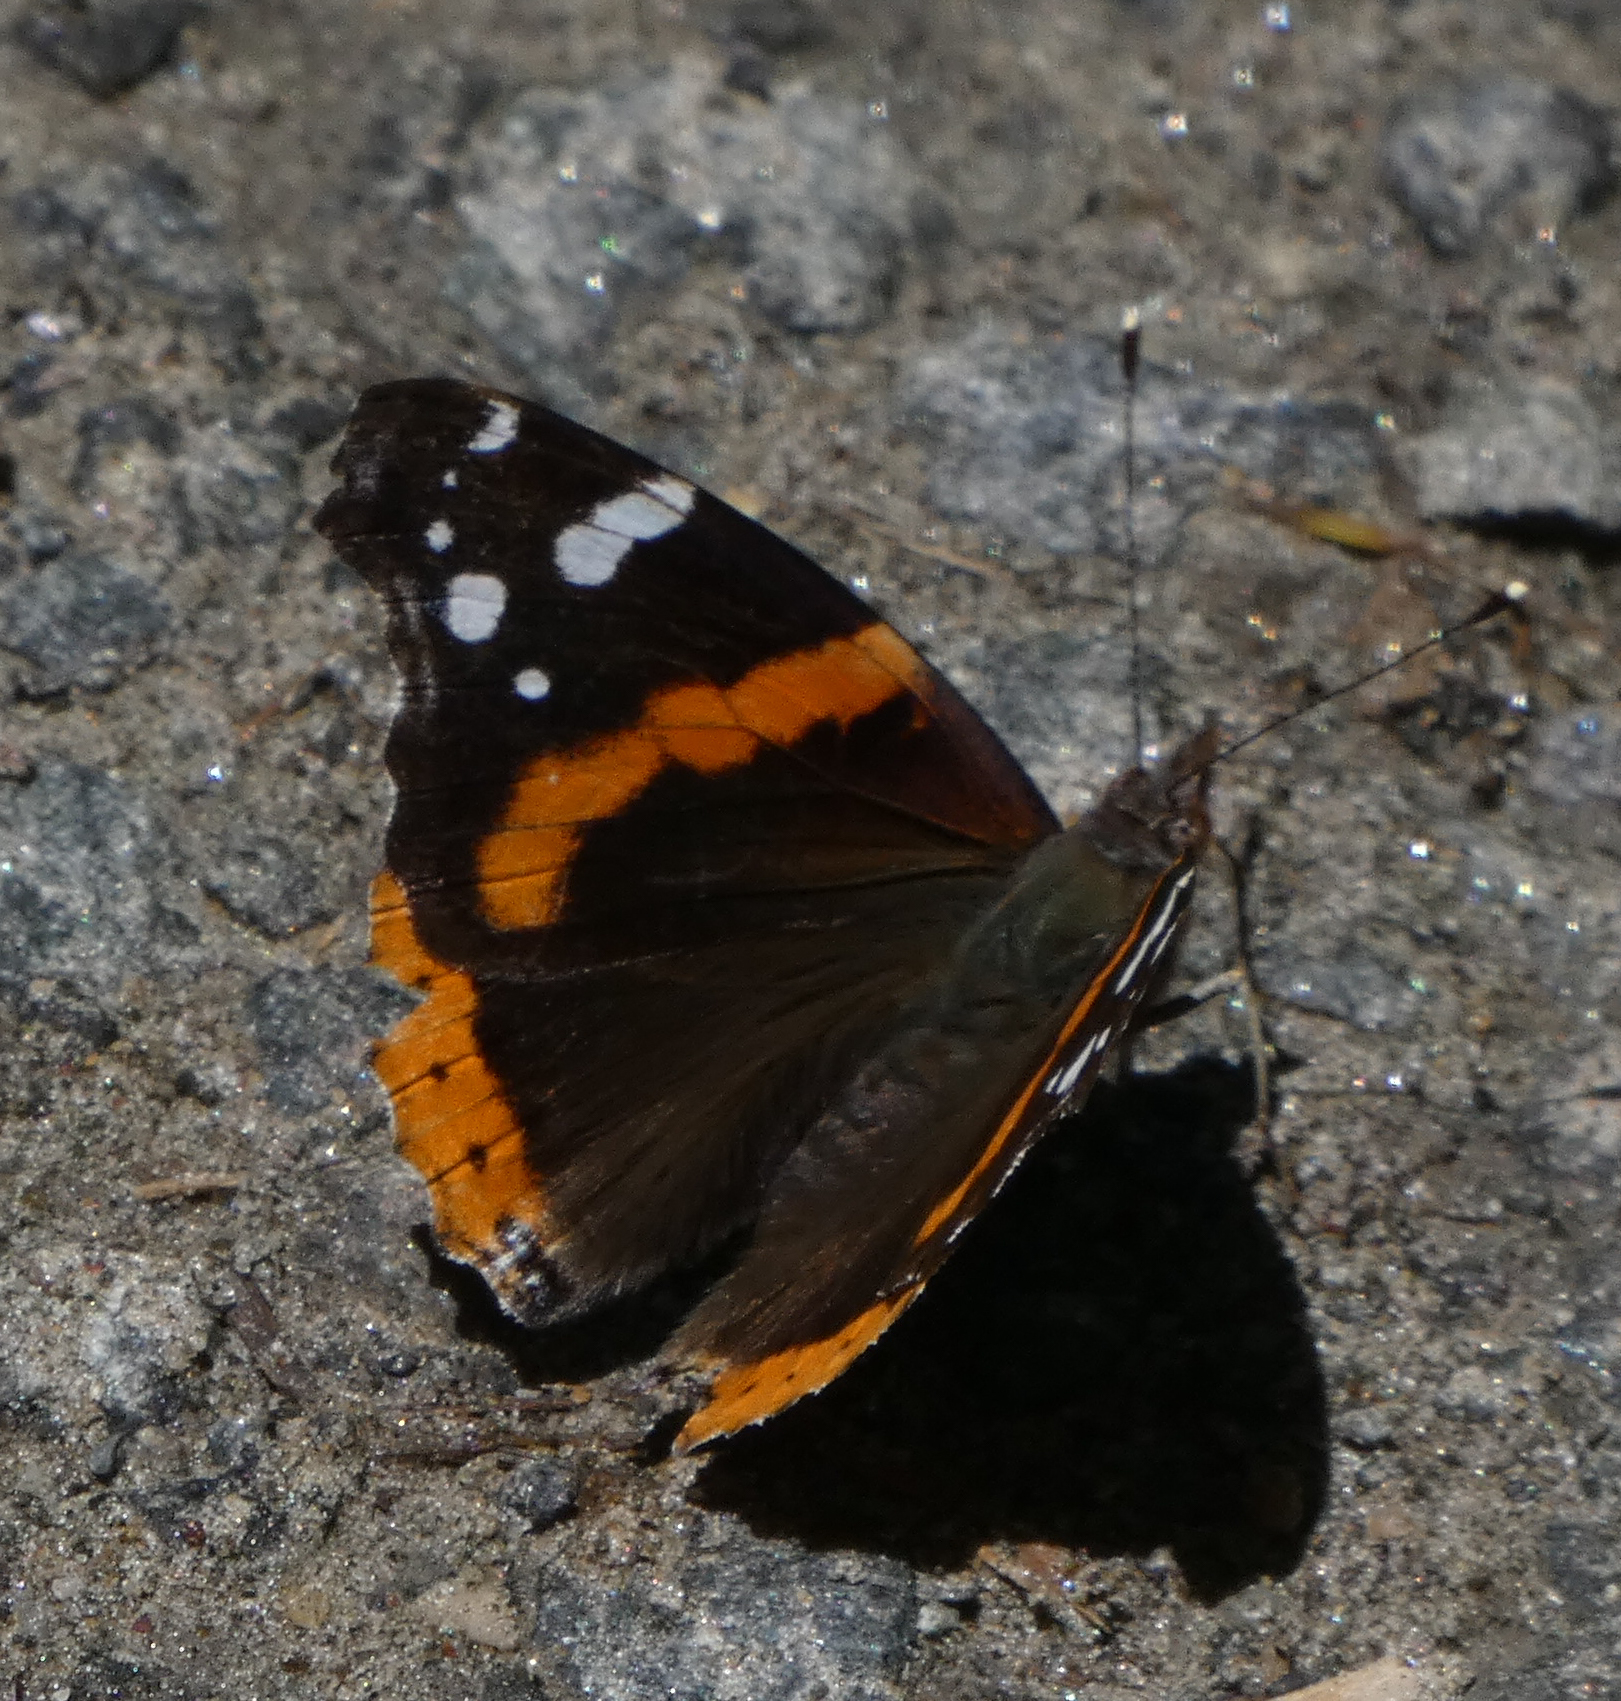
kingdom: Animalia
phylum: Arthropoda
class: Insecta
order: Lepidoptera
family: Nymphalidae
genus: Vanessa
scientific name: Vanessa atalanta
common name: Red admiral
